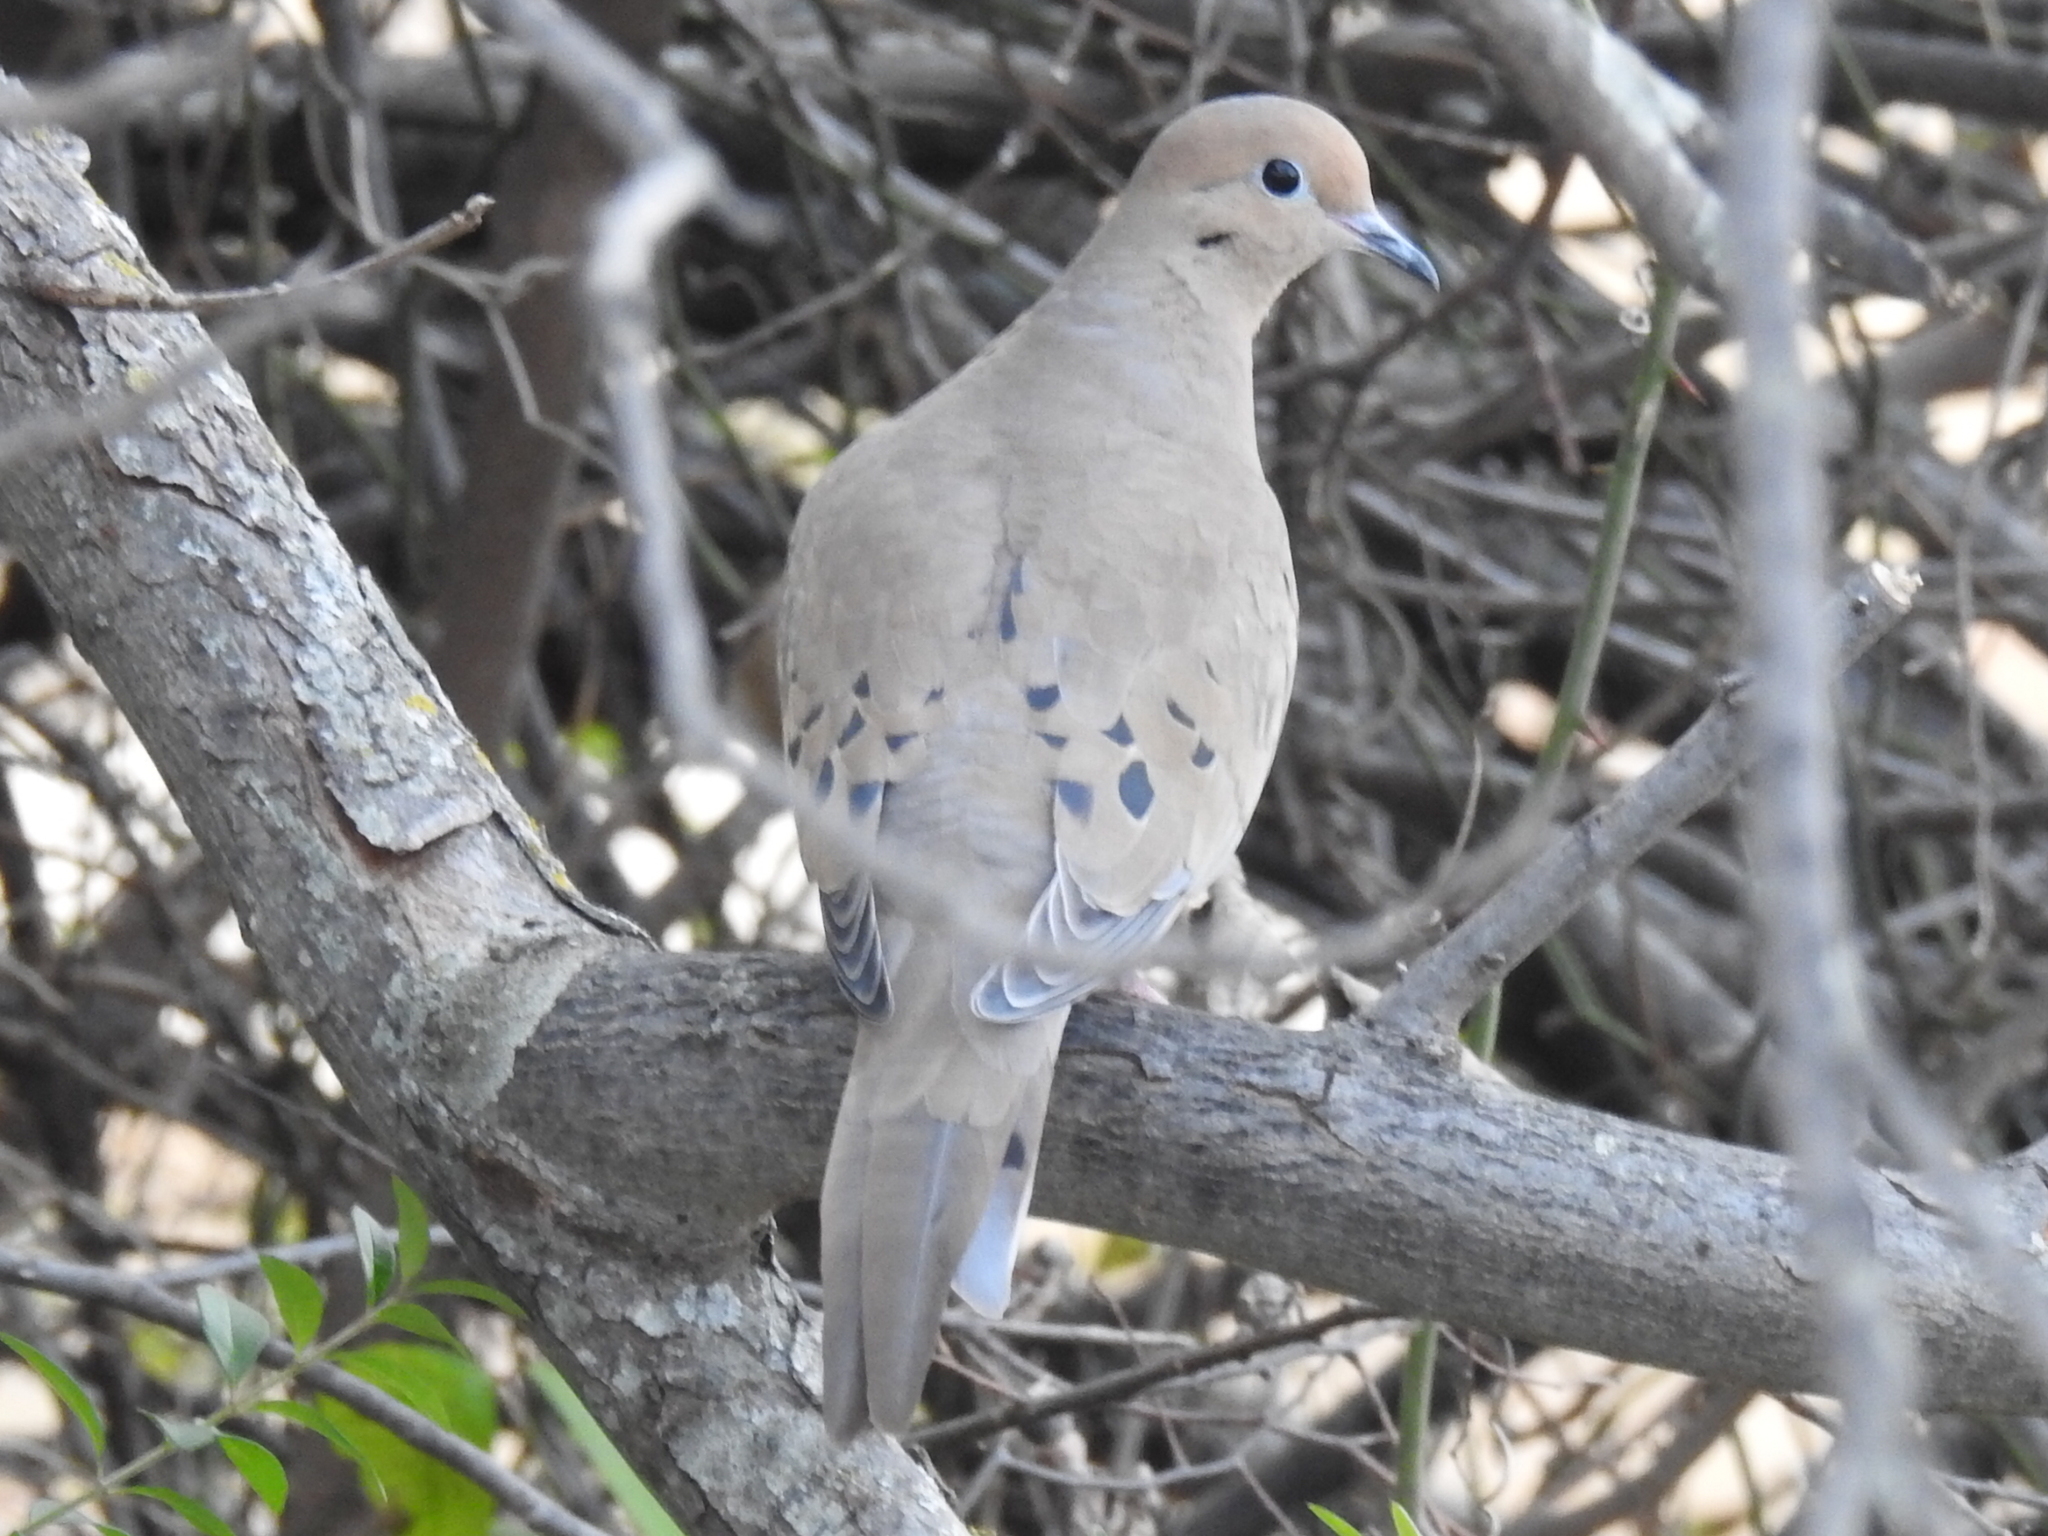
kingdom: Animalia
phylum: Chordata
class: Aves
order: Columbiformes
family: Columbidae
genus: Zenaida
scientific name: Zenaida macroura
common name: Mourning dove
